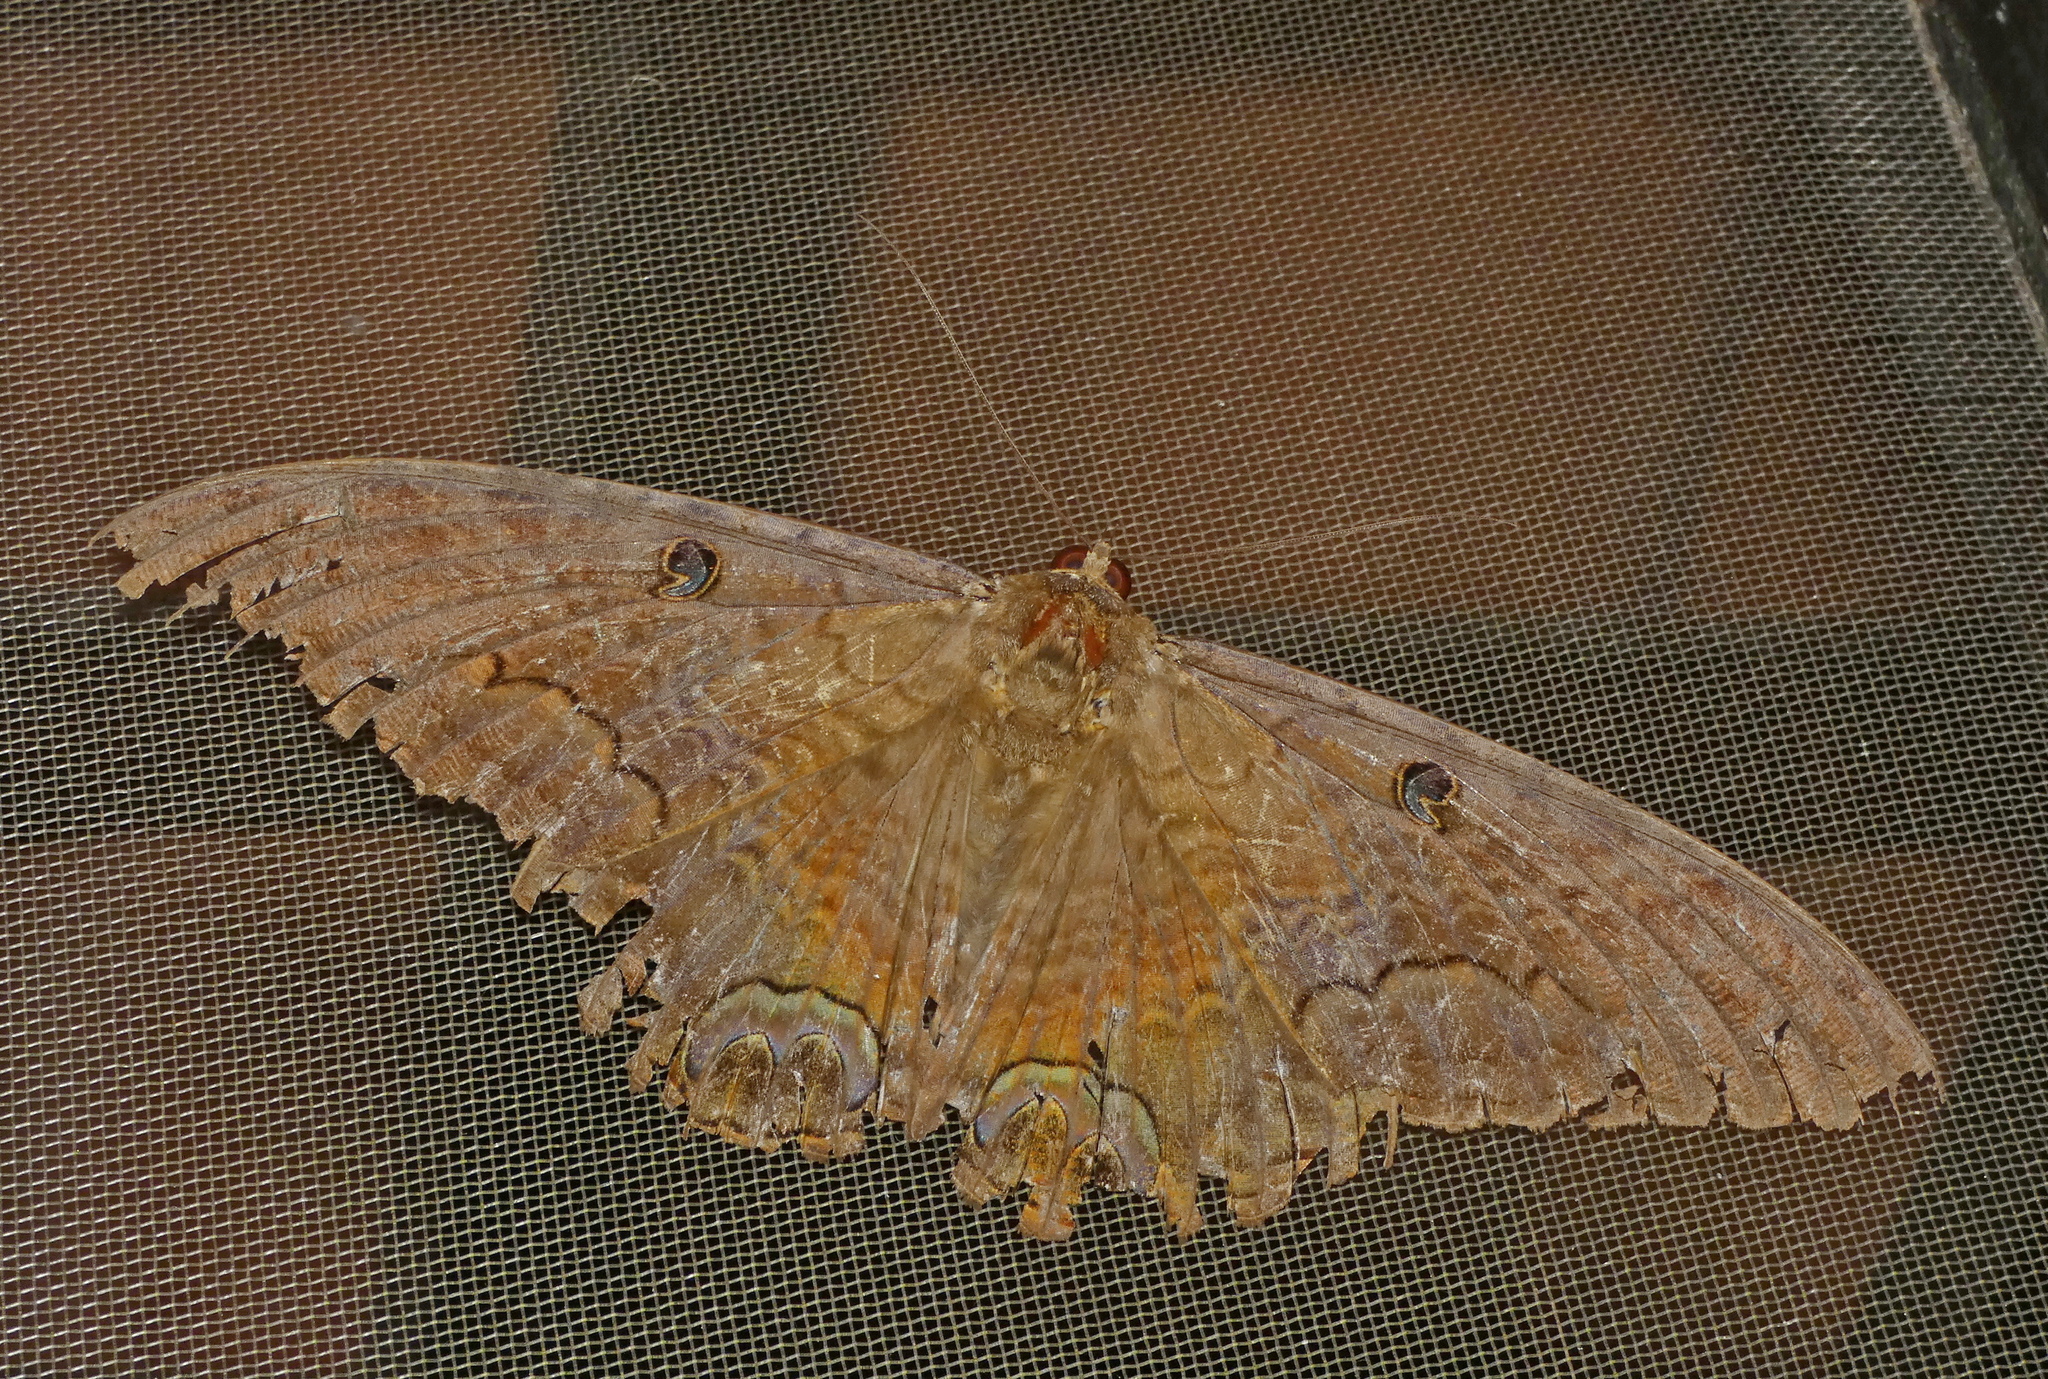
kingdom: Animalia
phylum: Arthropoda
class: Insecta
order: Lepidoptera
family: Erebidae
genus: Ascalapha
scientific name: Ascalapha odorata
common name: Black witch
